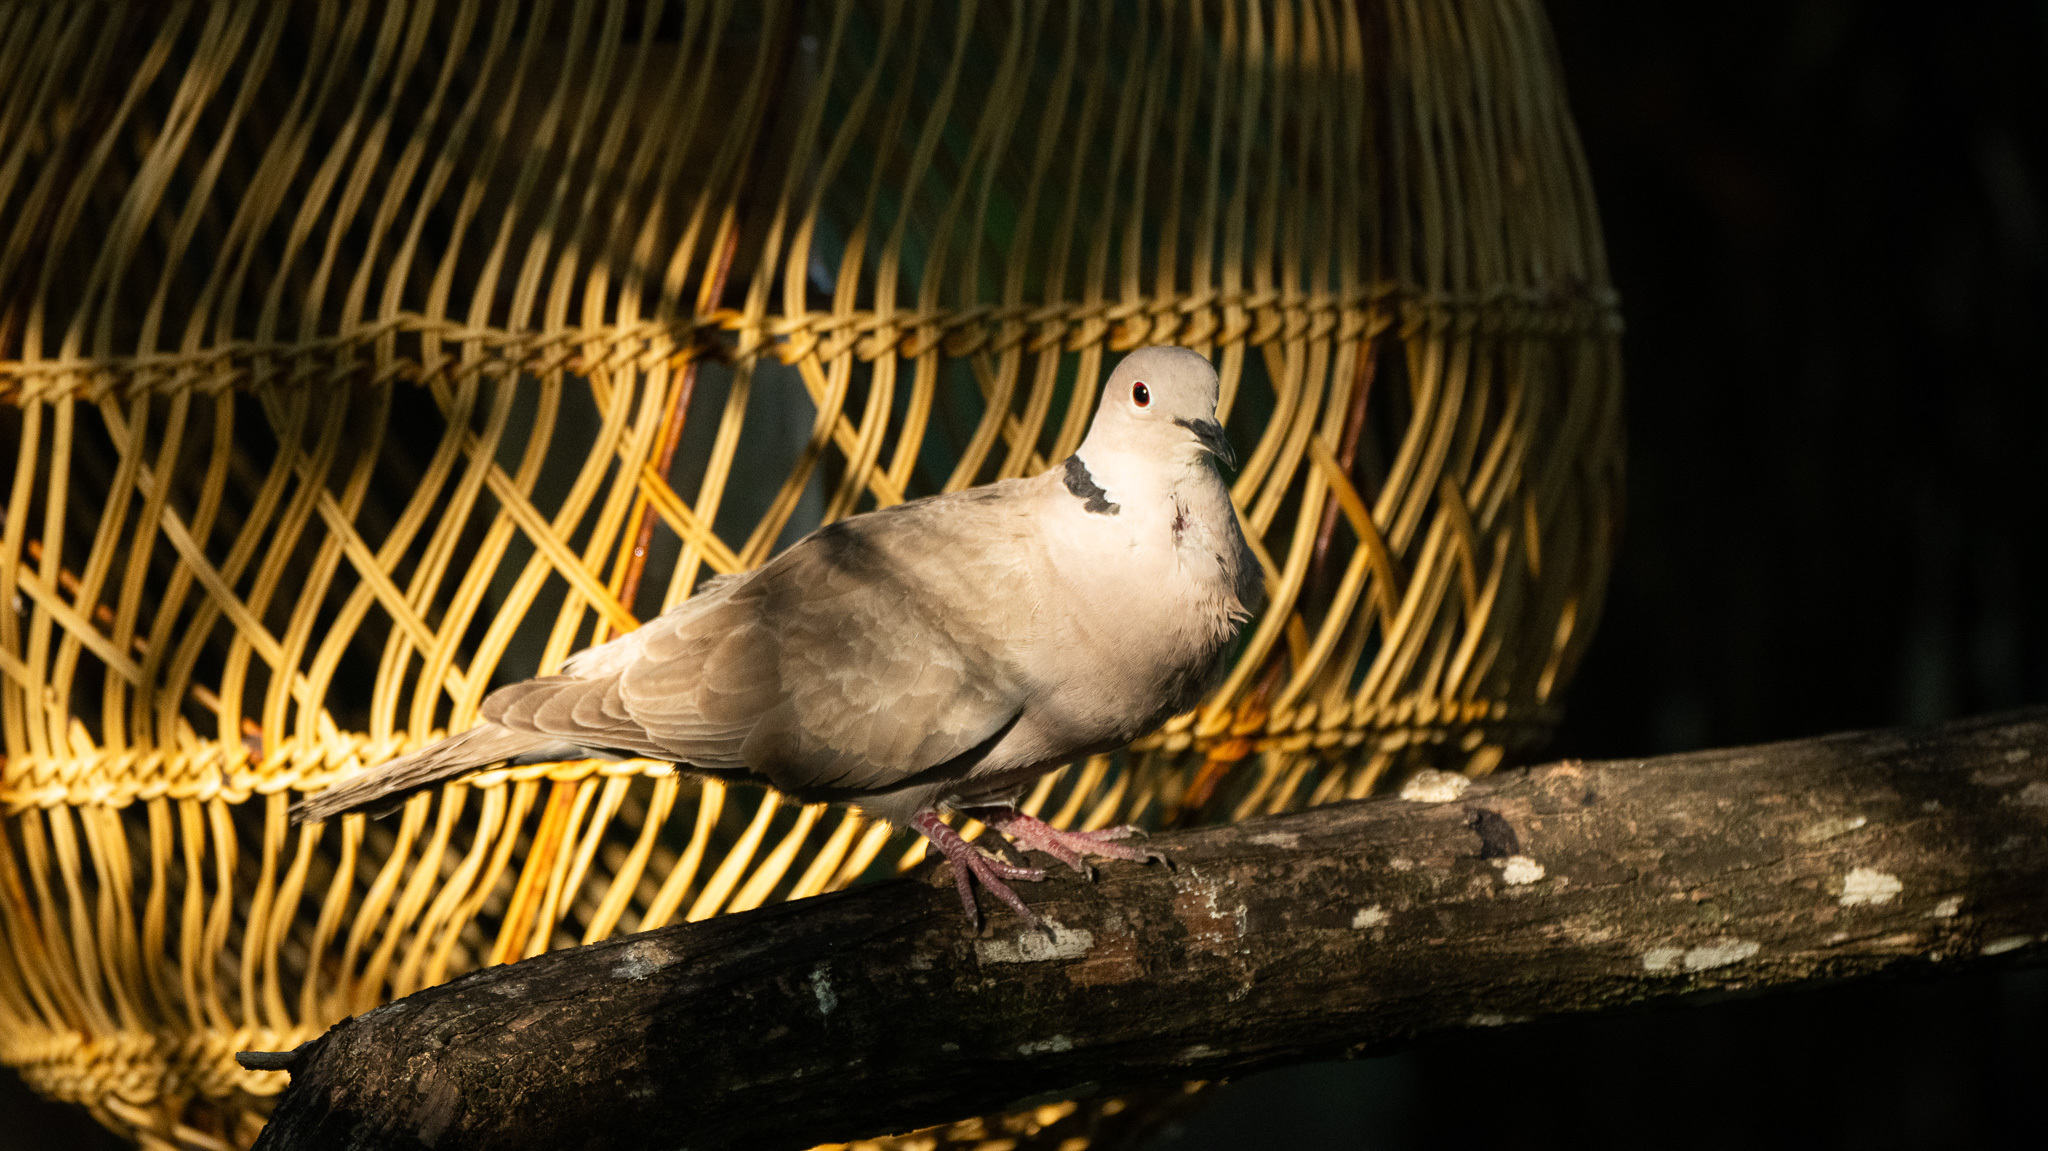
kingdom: Animalia
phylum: Chordata
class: Aves
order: Columbiformes
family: Columbidae
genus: Streptopelia
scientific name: Streptopelia decaocto
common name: Eurasian collared dove
